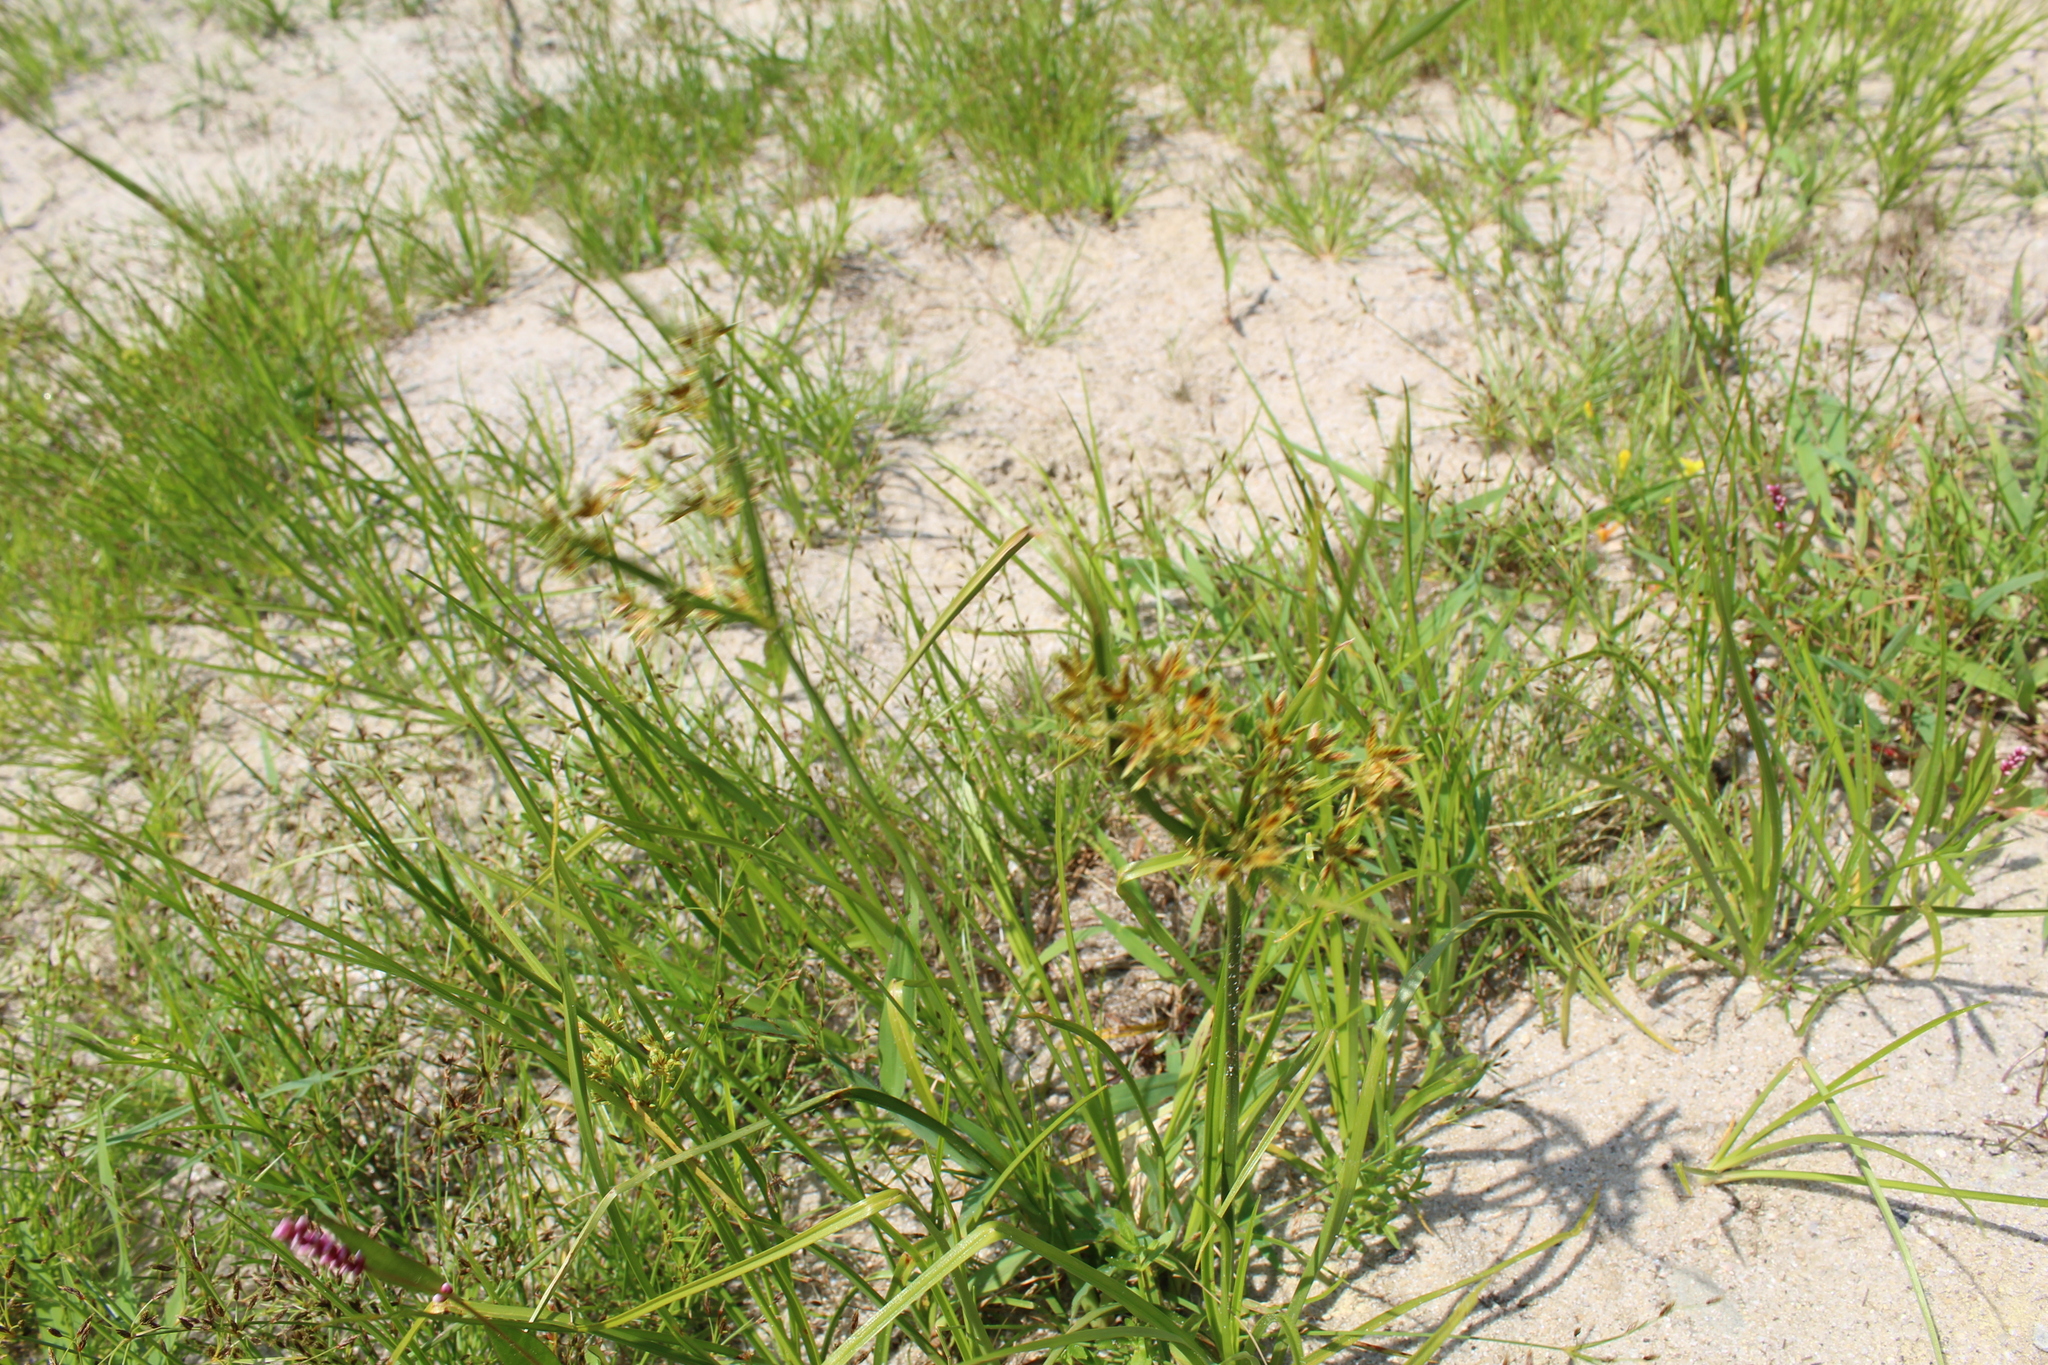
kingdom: Plantae
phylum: Tracheophyta
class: Liliopsida
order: Poales
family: Cyperaceae
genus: Cyperus
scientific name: Cyperus dentatus
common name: Dentate umbrella sedge
